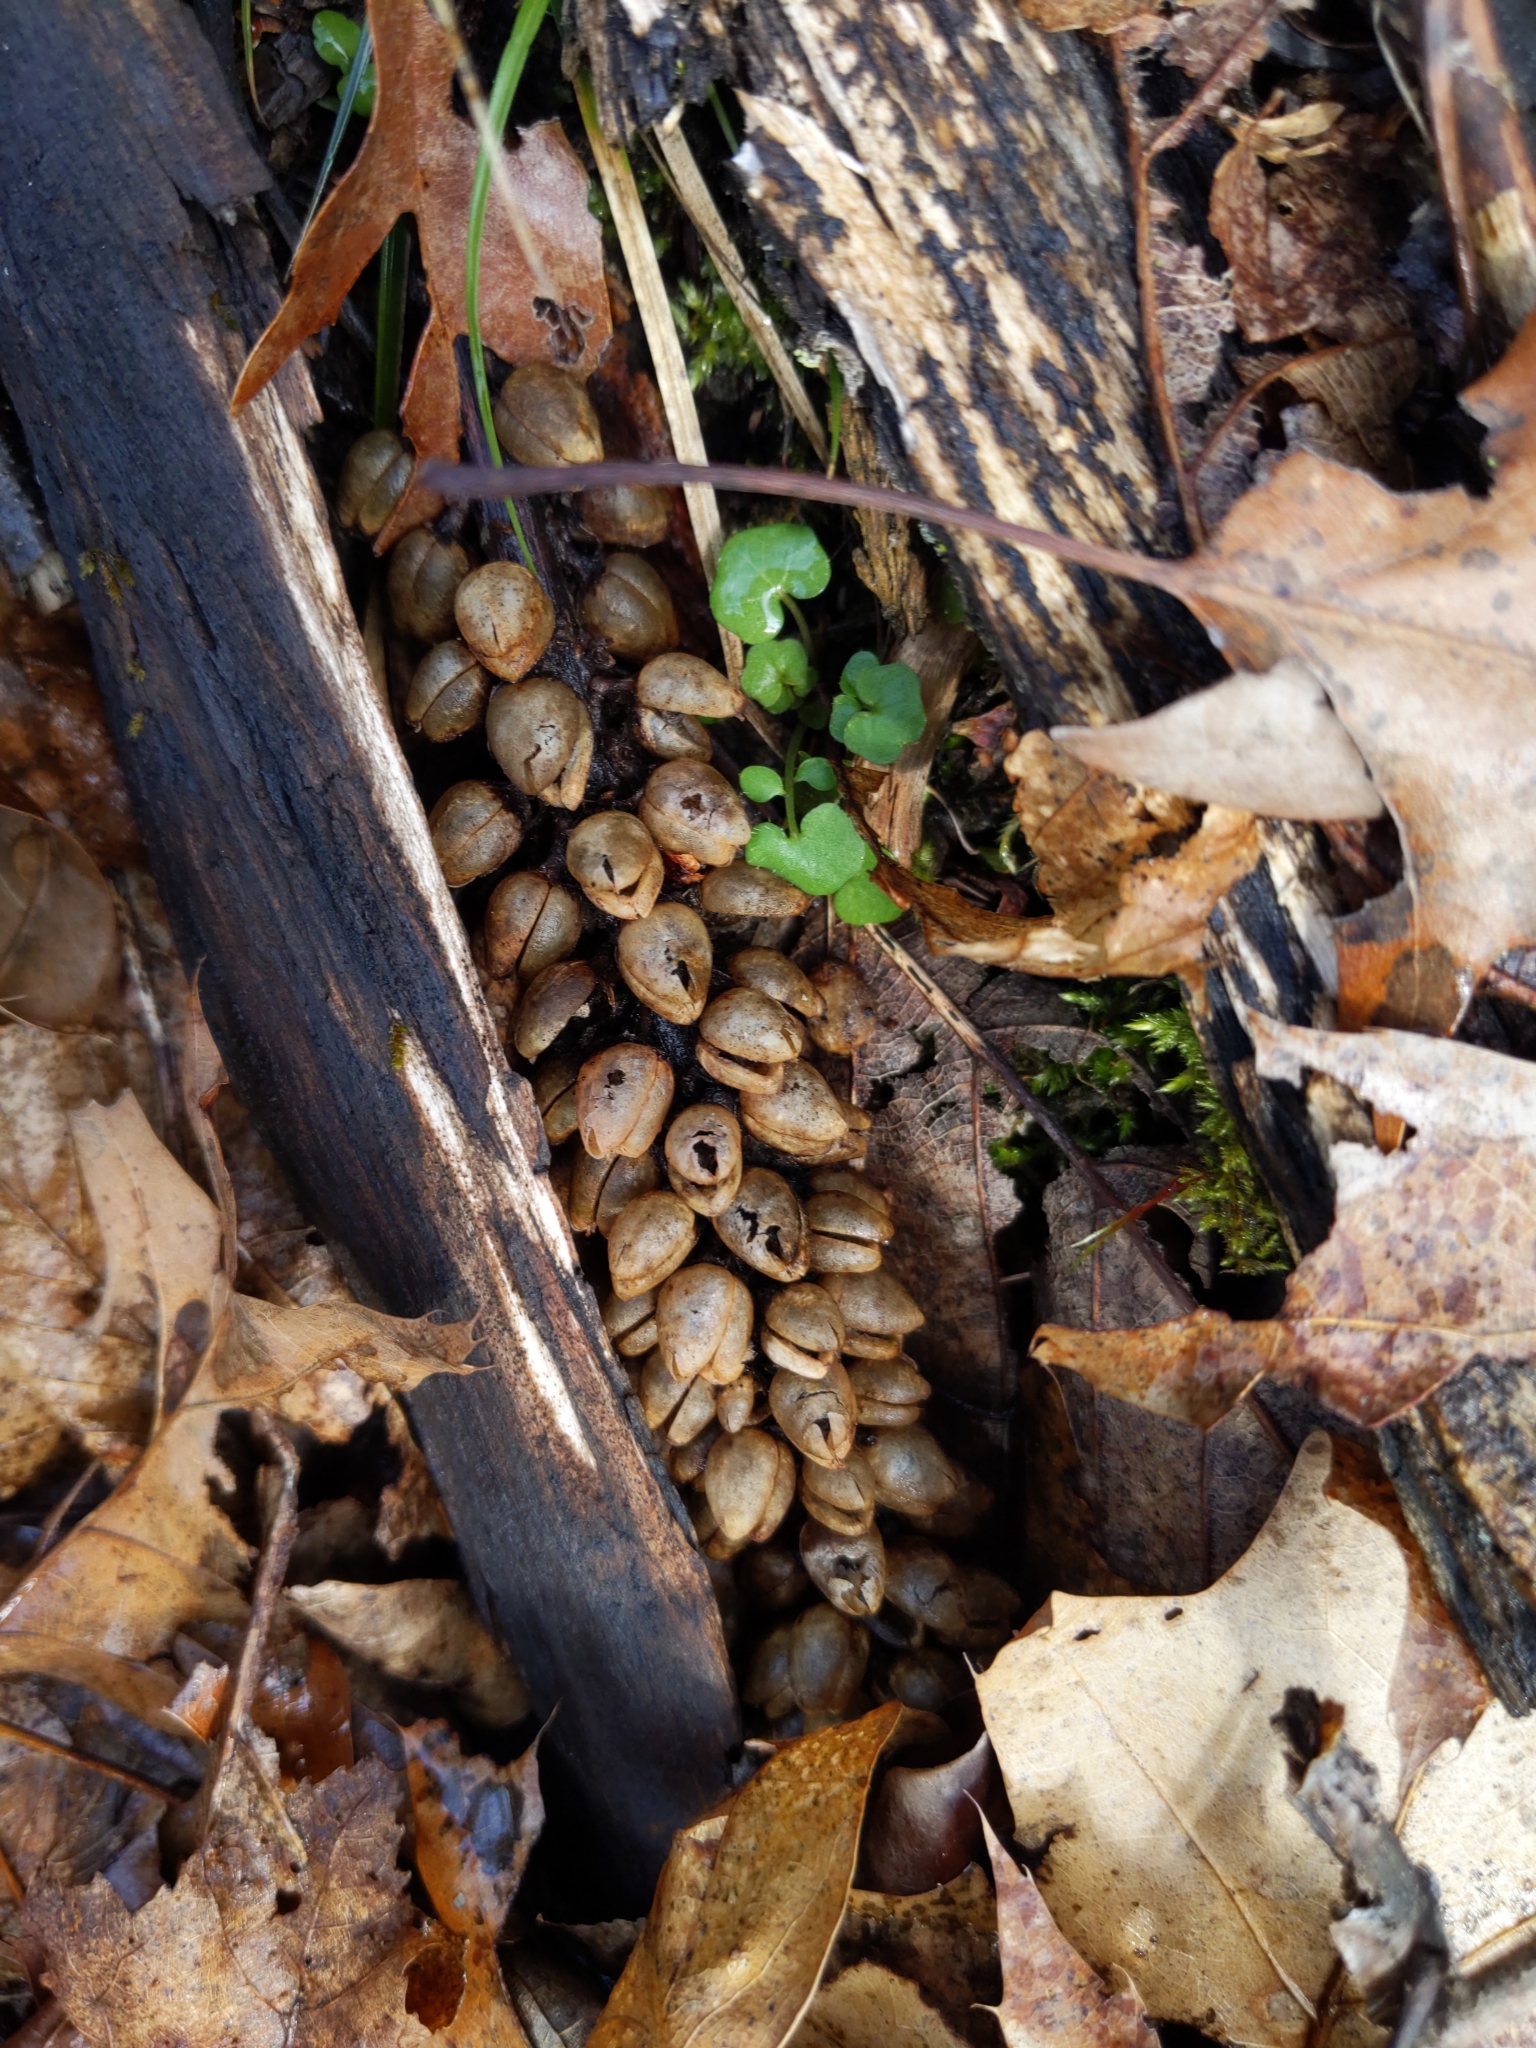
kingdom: Plantae
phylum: Tracheophyta
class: Magnoliopsida
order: Lamiales
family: Paulowniaceae
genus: Paulownia
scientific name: Paulownia tomentosa
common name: Foxglove-tree
